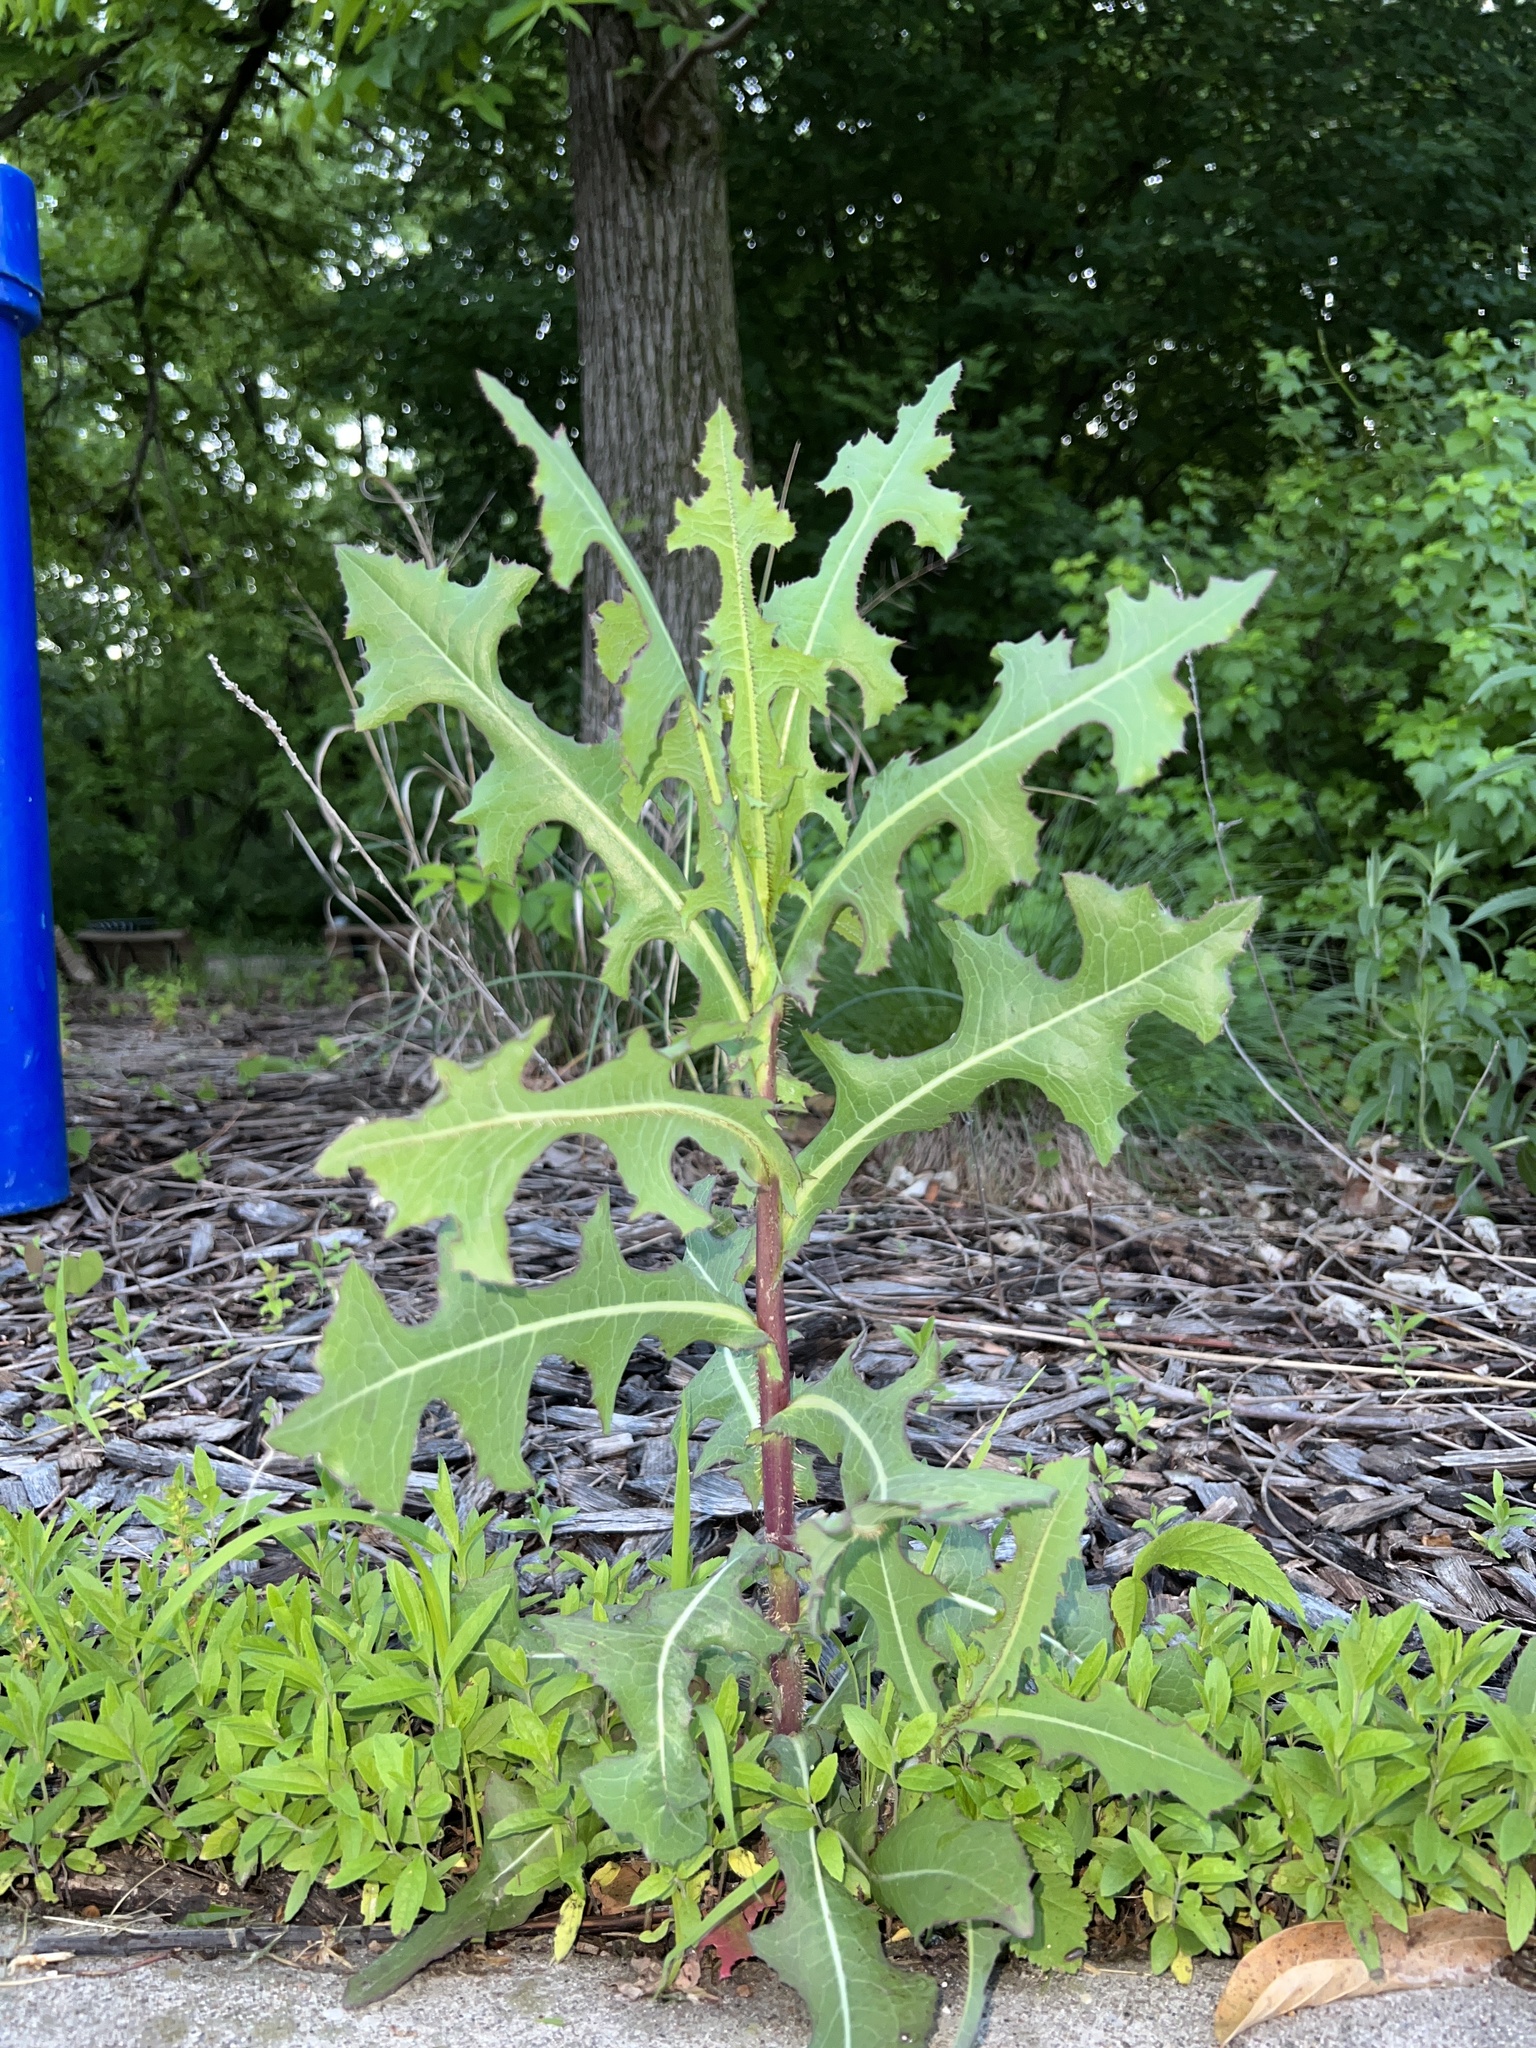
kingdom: Plantae
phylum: Tracheophyta
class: Magnoliopsida
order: Asterales
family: Asteraceae
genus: Lactuca
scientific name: Lactuca serriola
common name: Prickly lettuce
